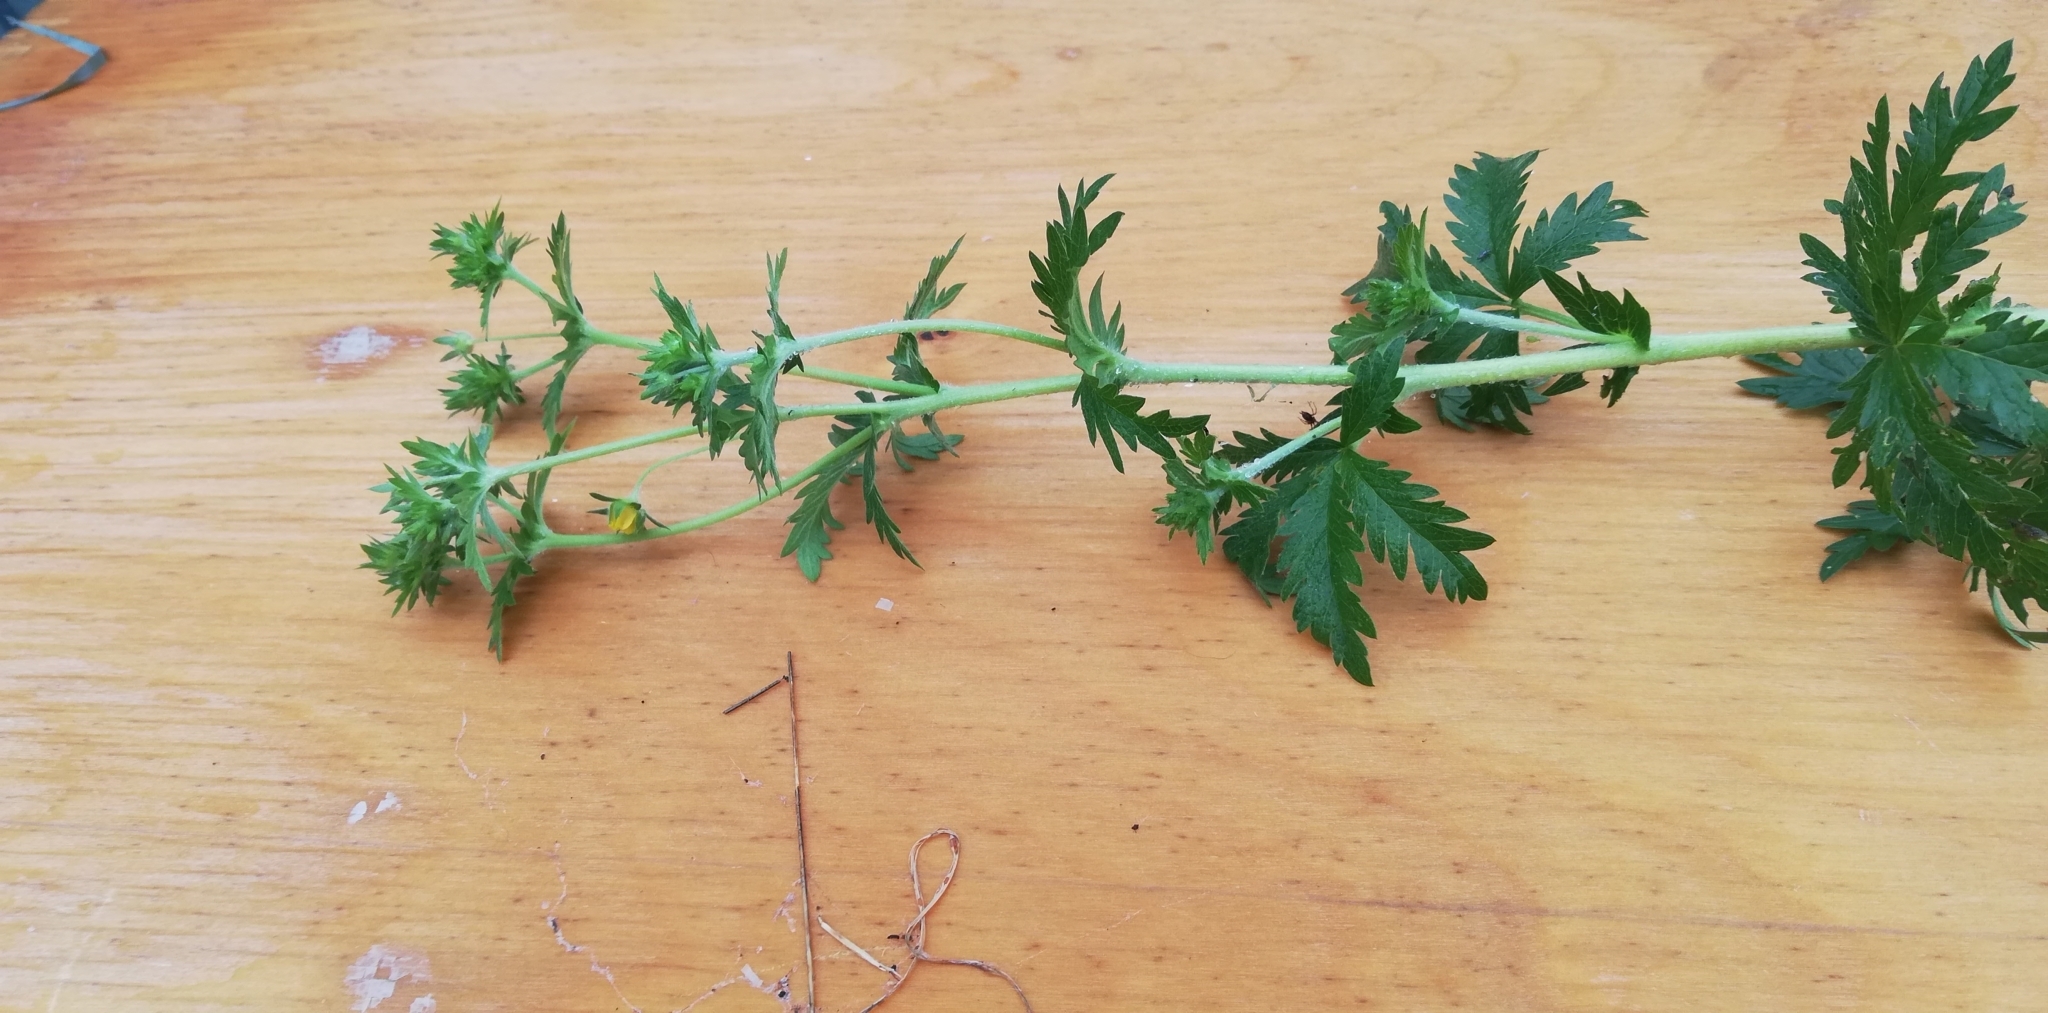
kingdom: Plantae
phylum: Tracheophyta
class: Magnoliopsida
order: Rosales
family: Rosaceae
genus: Potentilla
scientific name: Potentilla intermedia
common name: Downy cinquefoil
